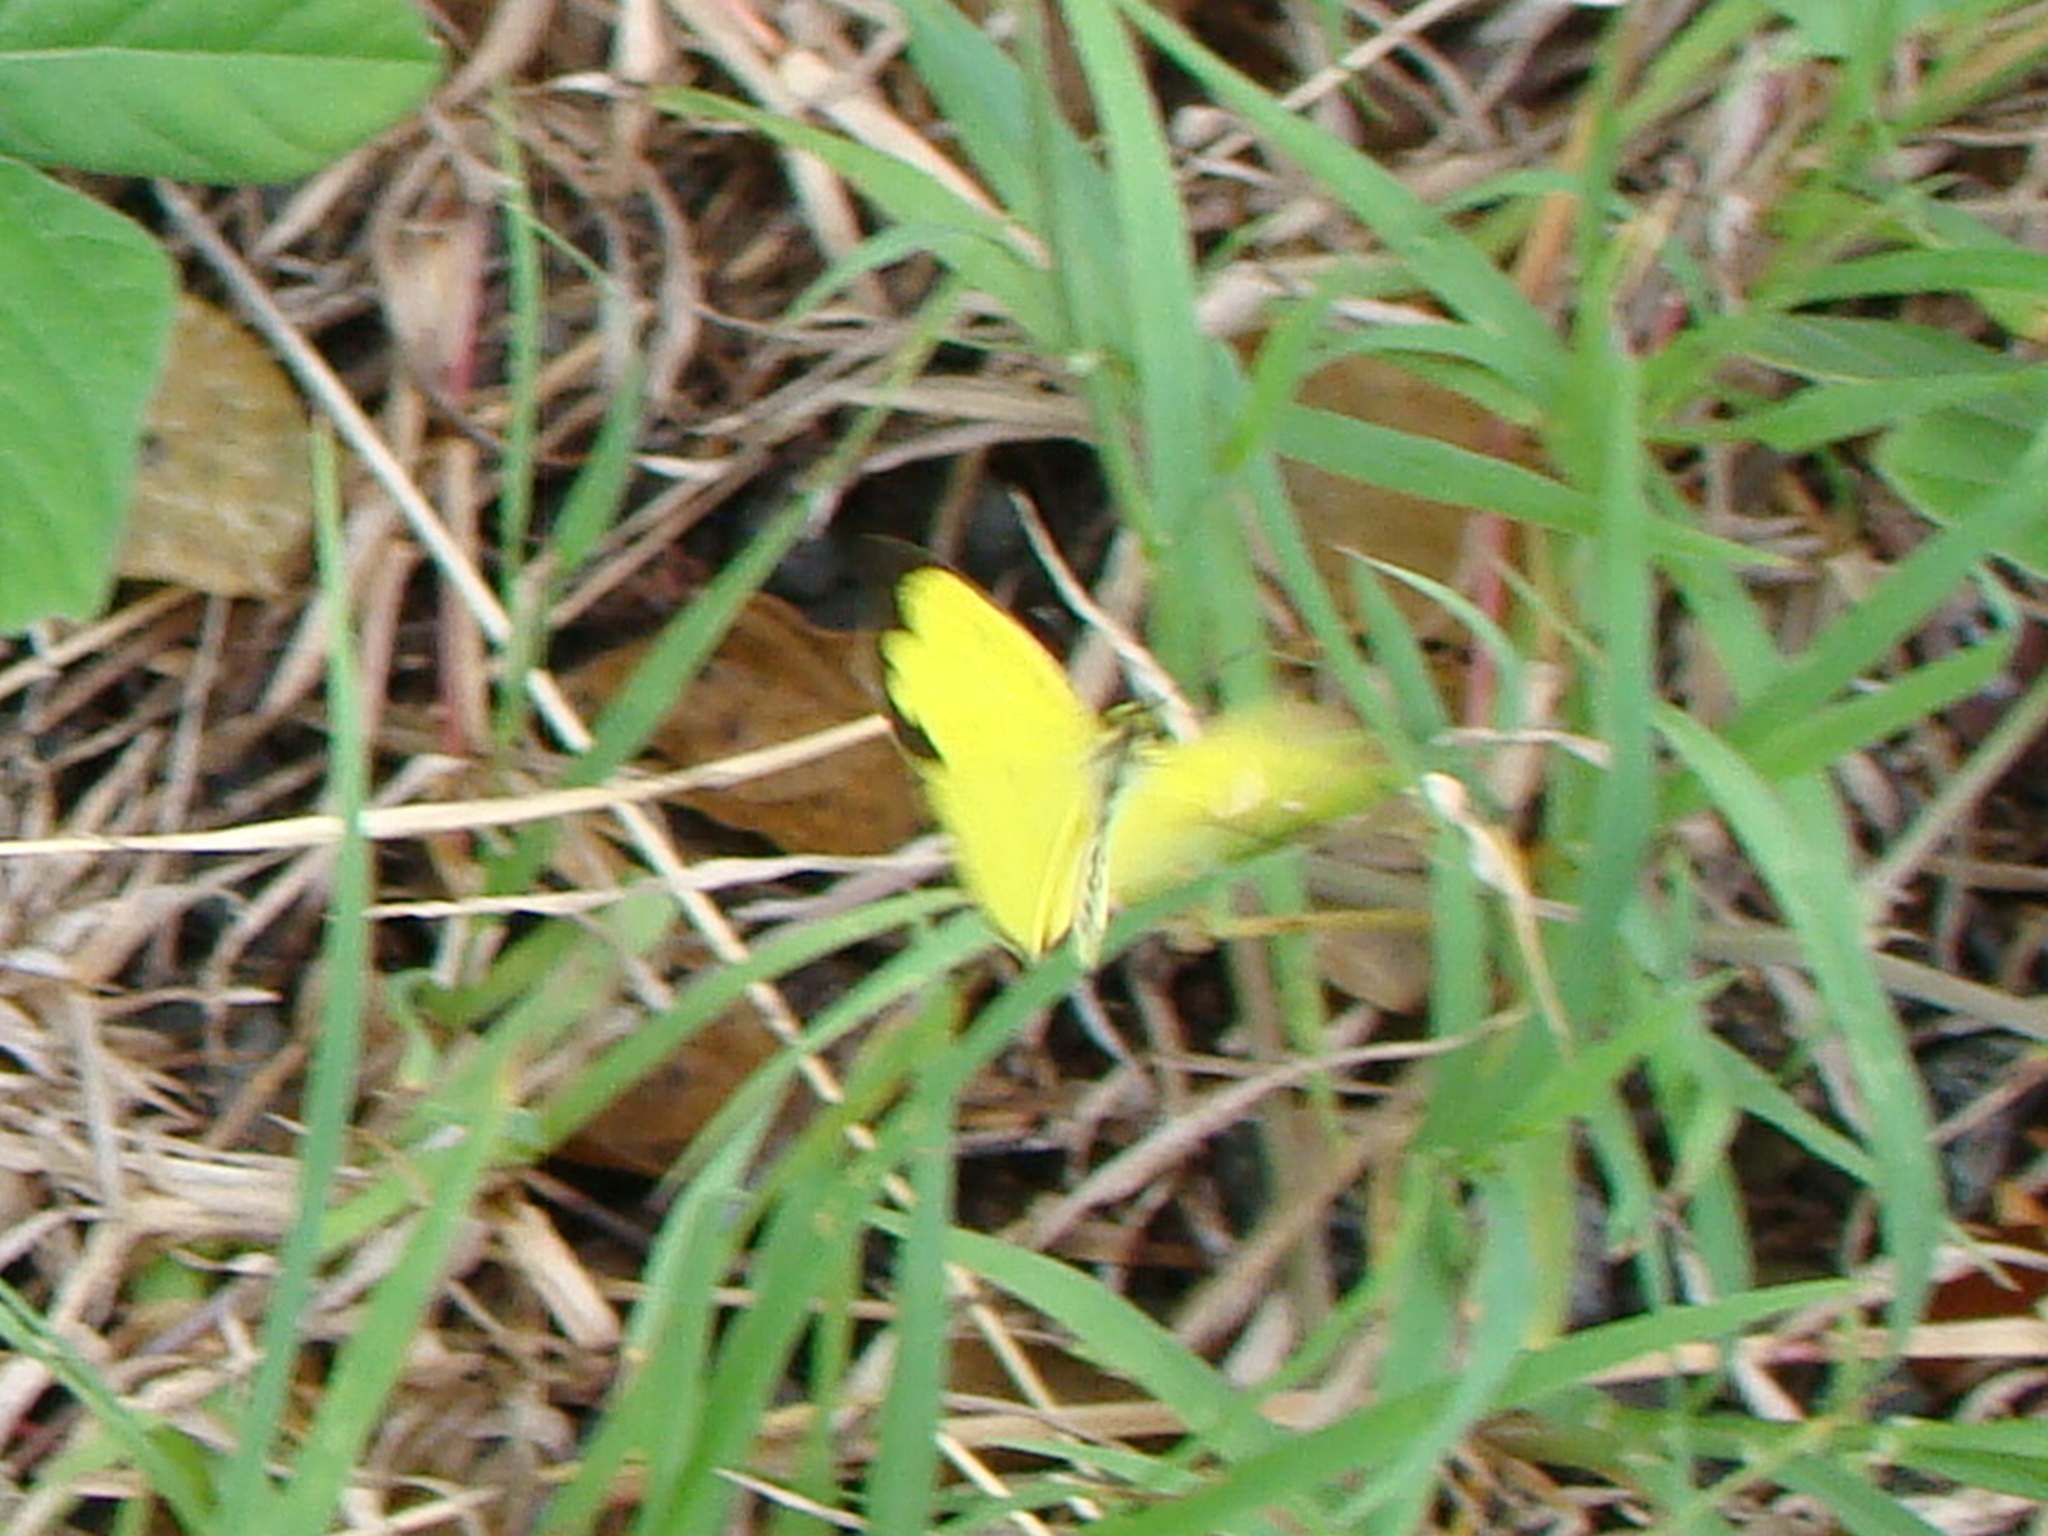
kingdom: Animalia
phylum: Arthropoda
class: Insecta
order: Lepidoptera
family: Pieridae
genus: Eurema
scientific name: Eurema hecabe
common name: Pale grass yellow
